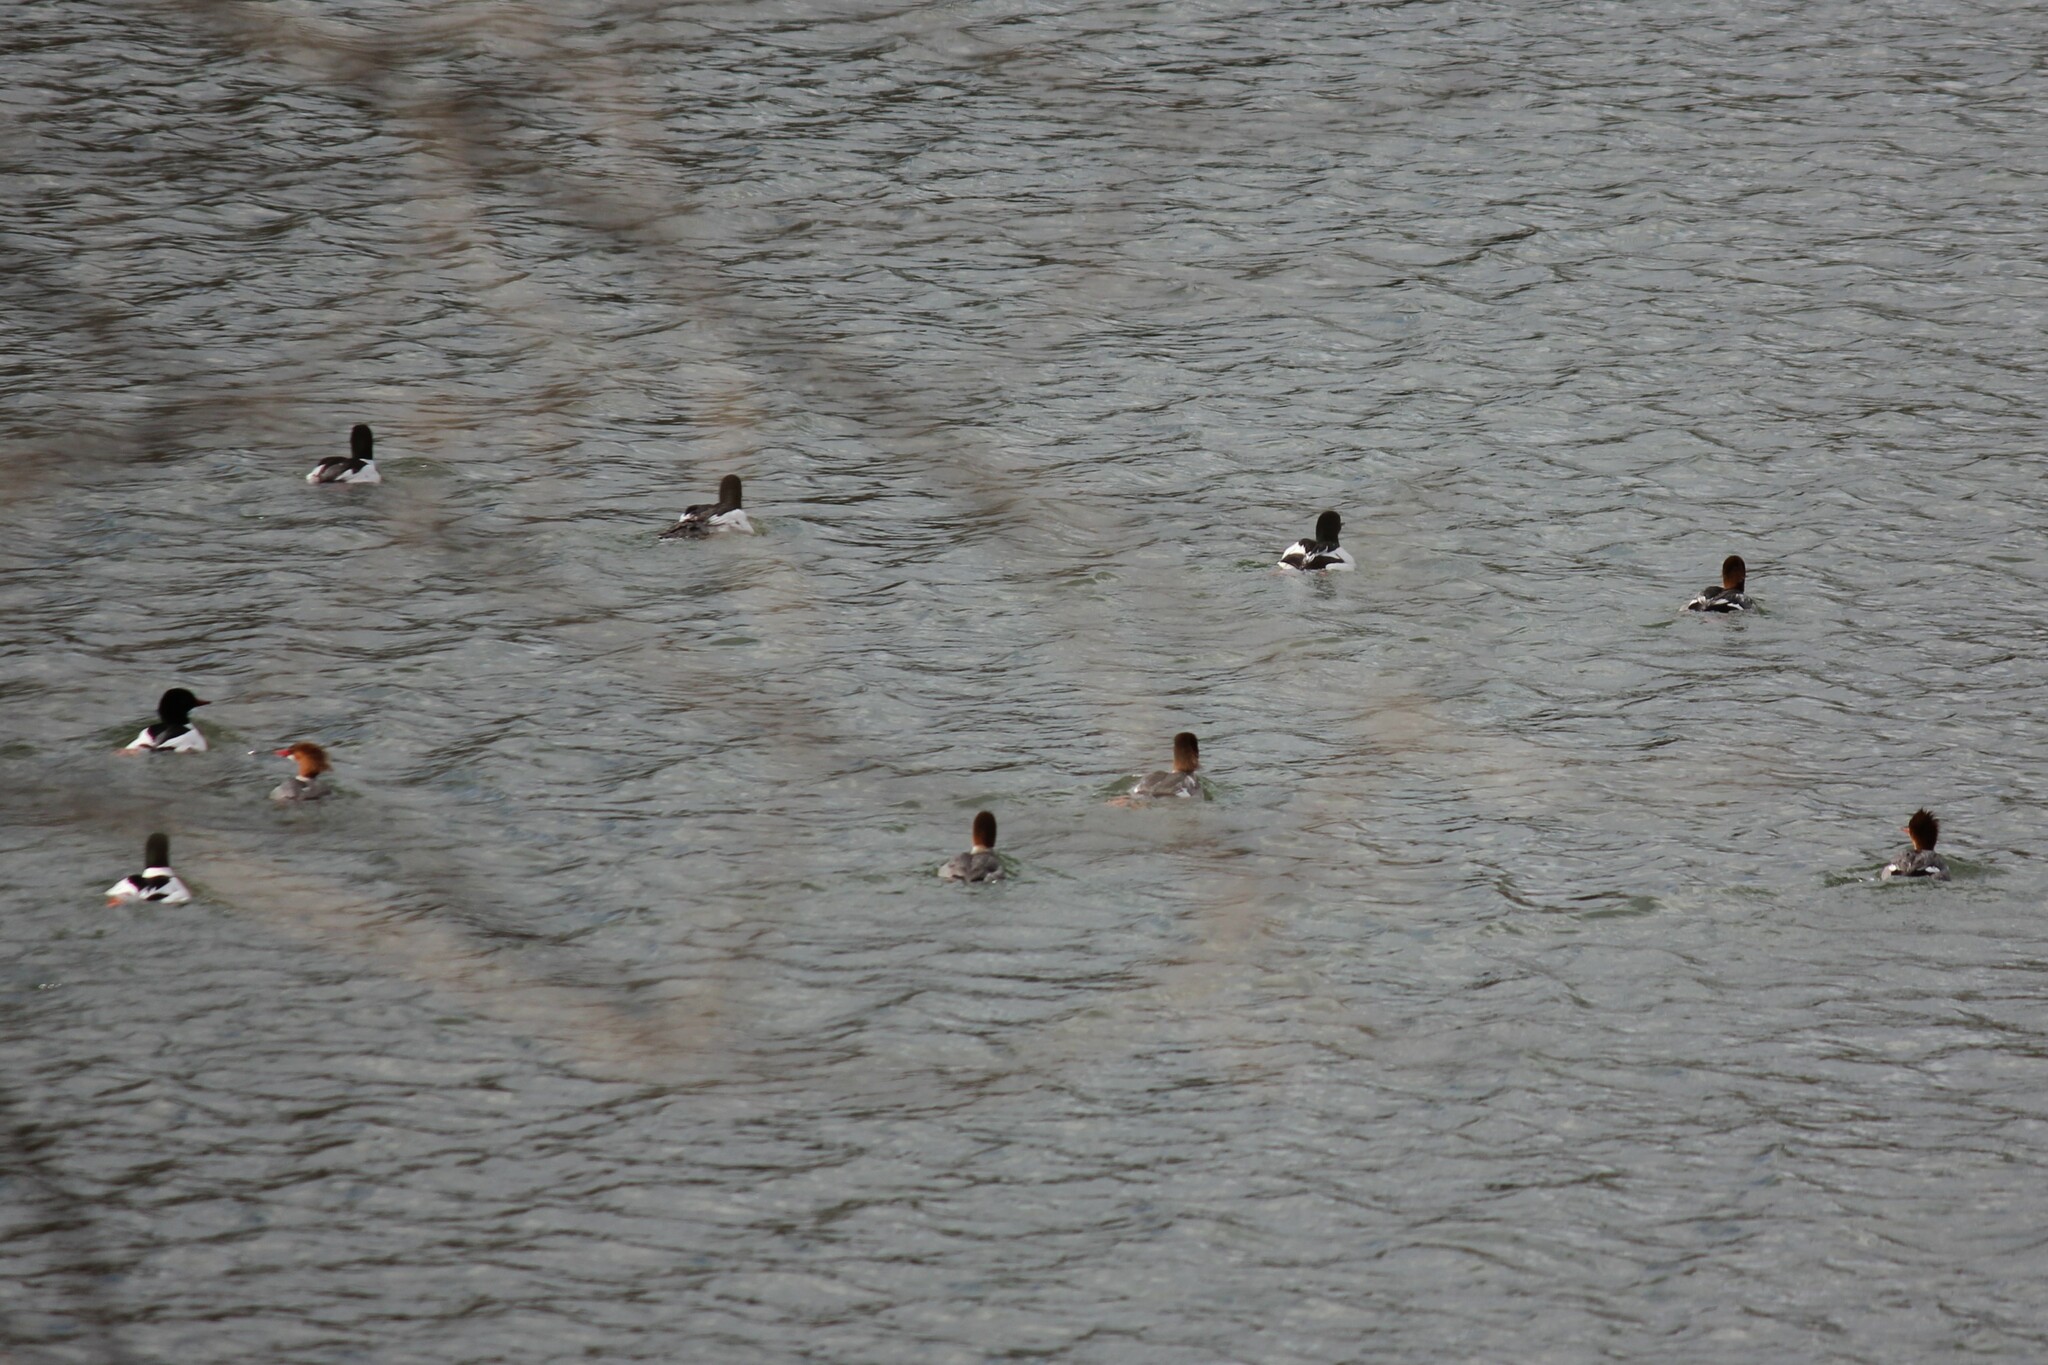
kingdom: Animalia
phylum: Chordata
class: Aves
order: Anseriformes
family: Anatidae
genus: Mergus
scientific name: Mergus merganser
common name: Common merganser
